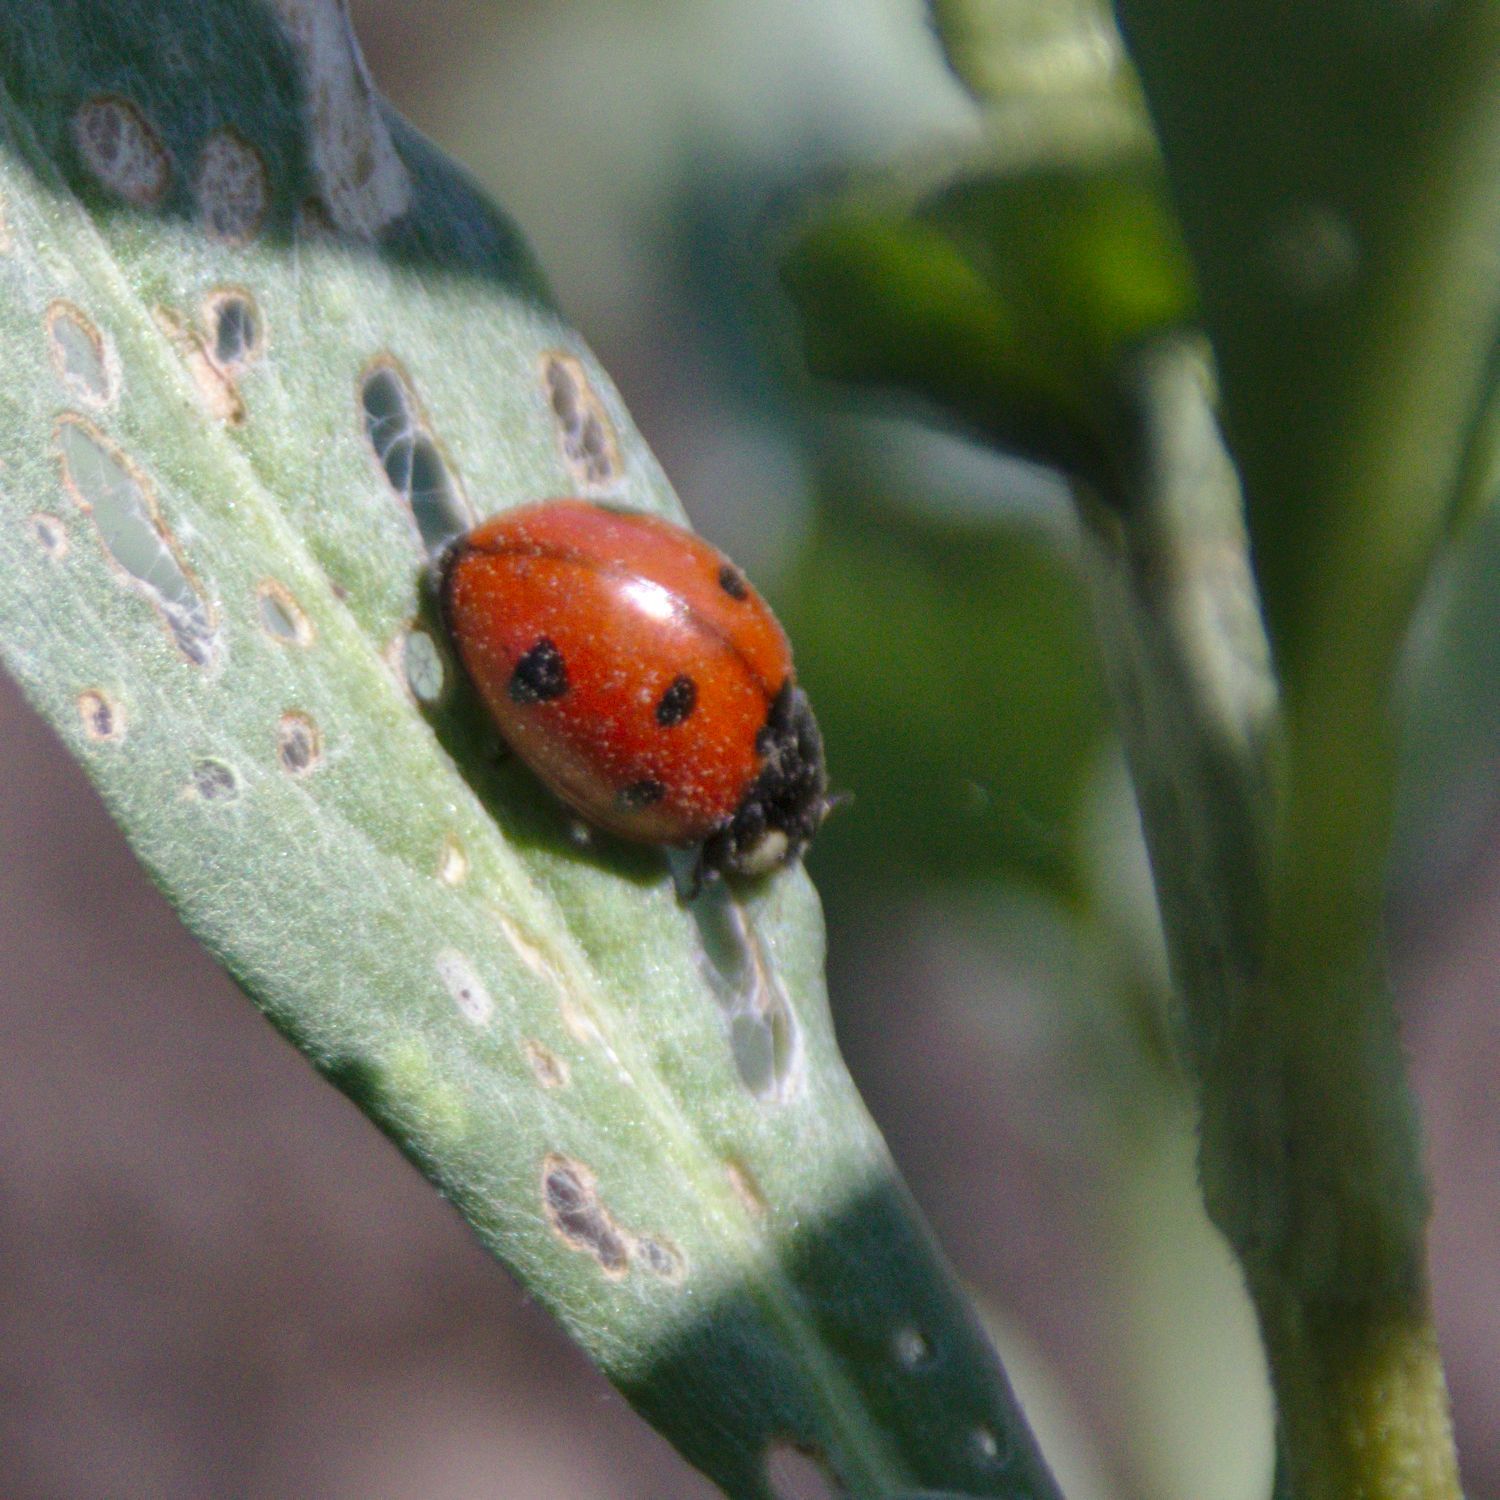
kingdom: Animalia
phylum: Arthropoda
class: Insecta
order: Coleoptera
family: Coccinellidae
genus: Coccinella
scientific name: Coccinella septempunctata
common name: Sevenspotted lady beetle
